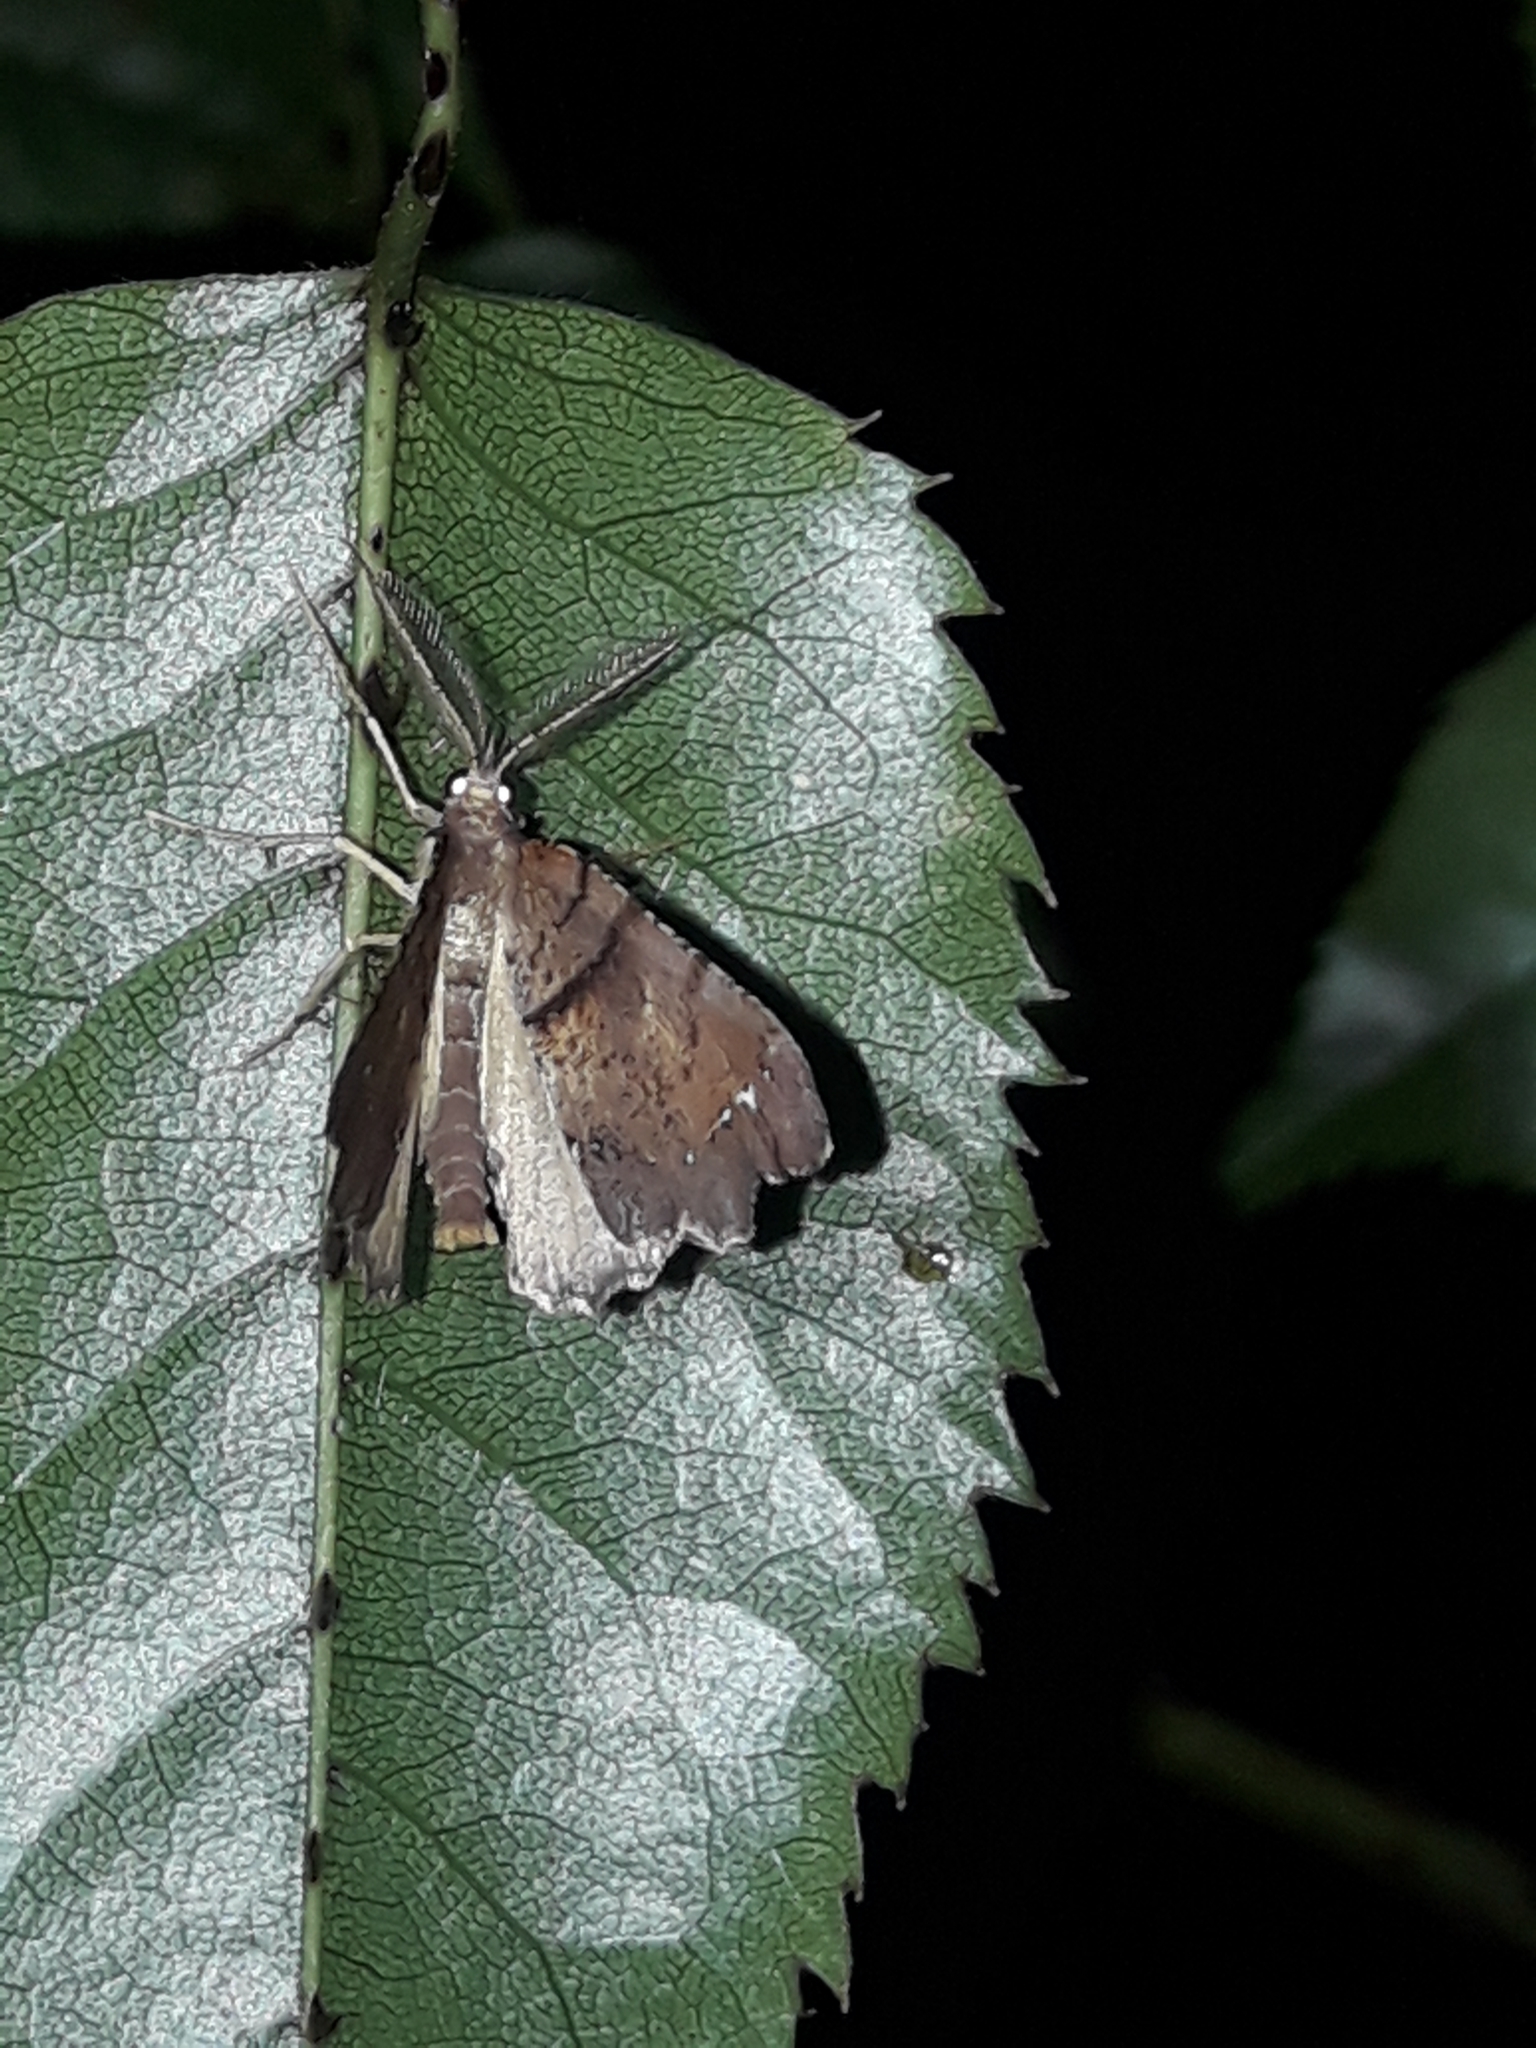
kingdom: Animalia
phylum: Arthropoda
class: Insecta
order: Lepidoptera
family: Geometridae
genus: Chalastra
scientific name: Chalastra pellurgata
